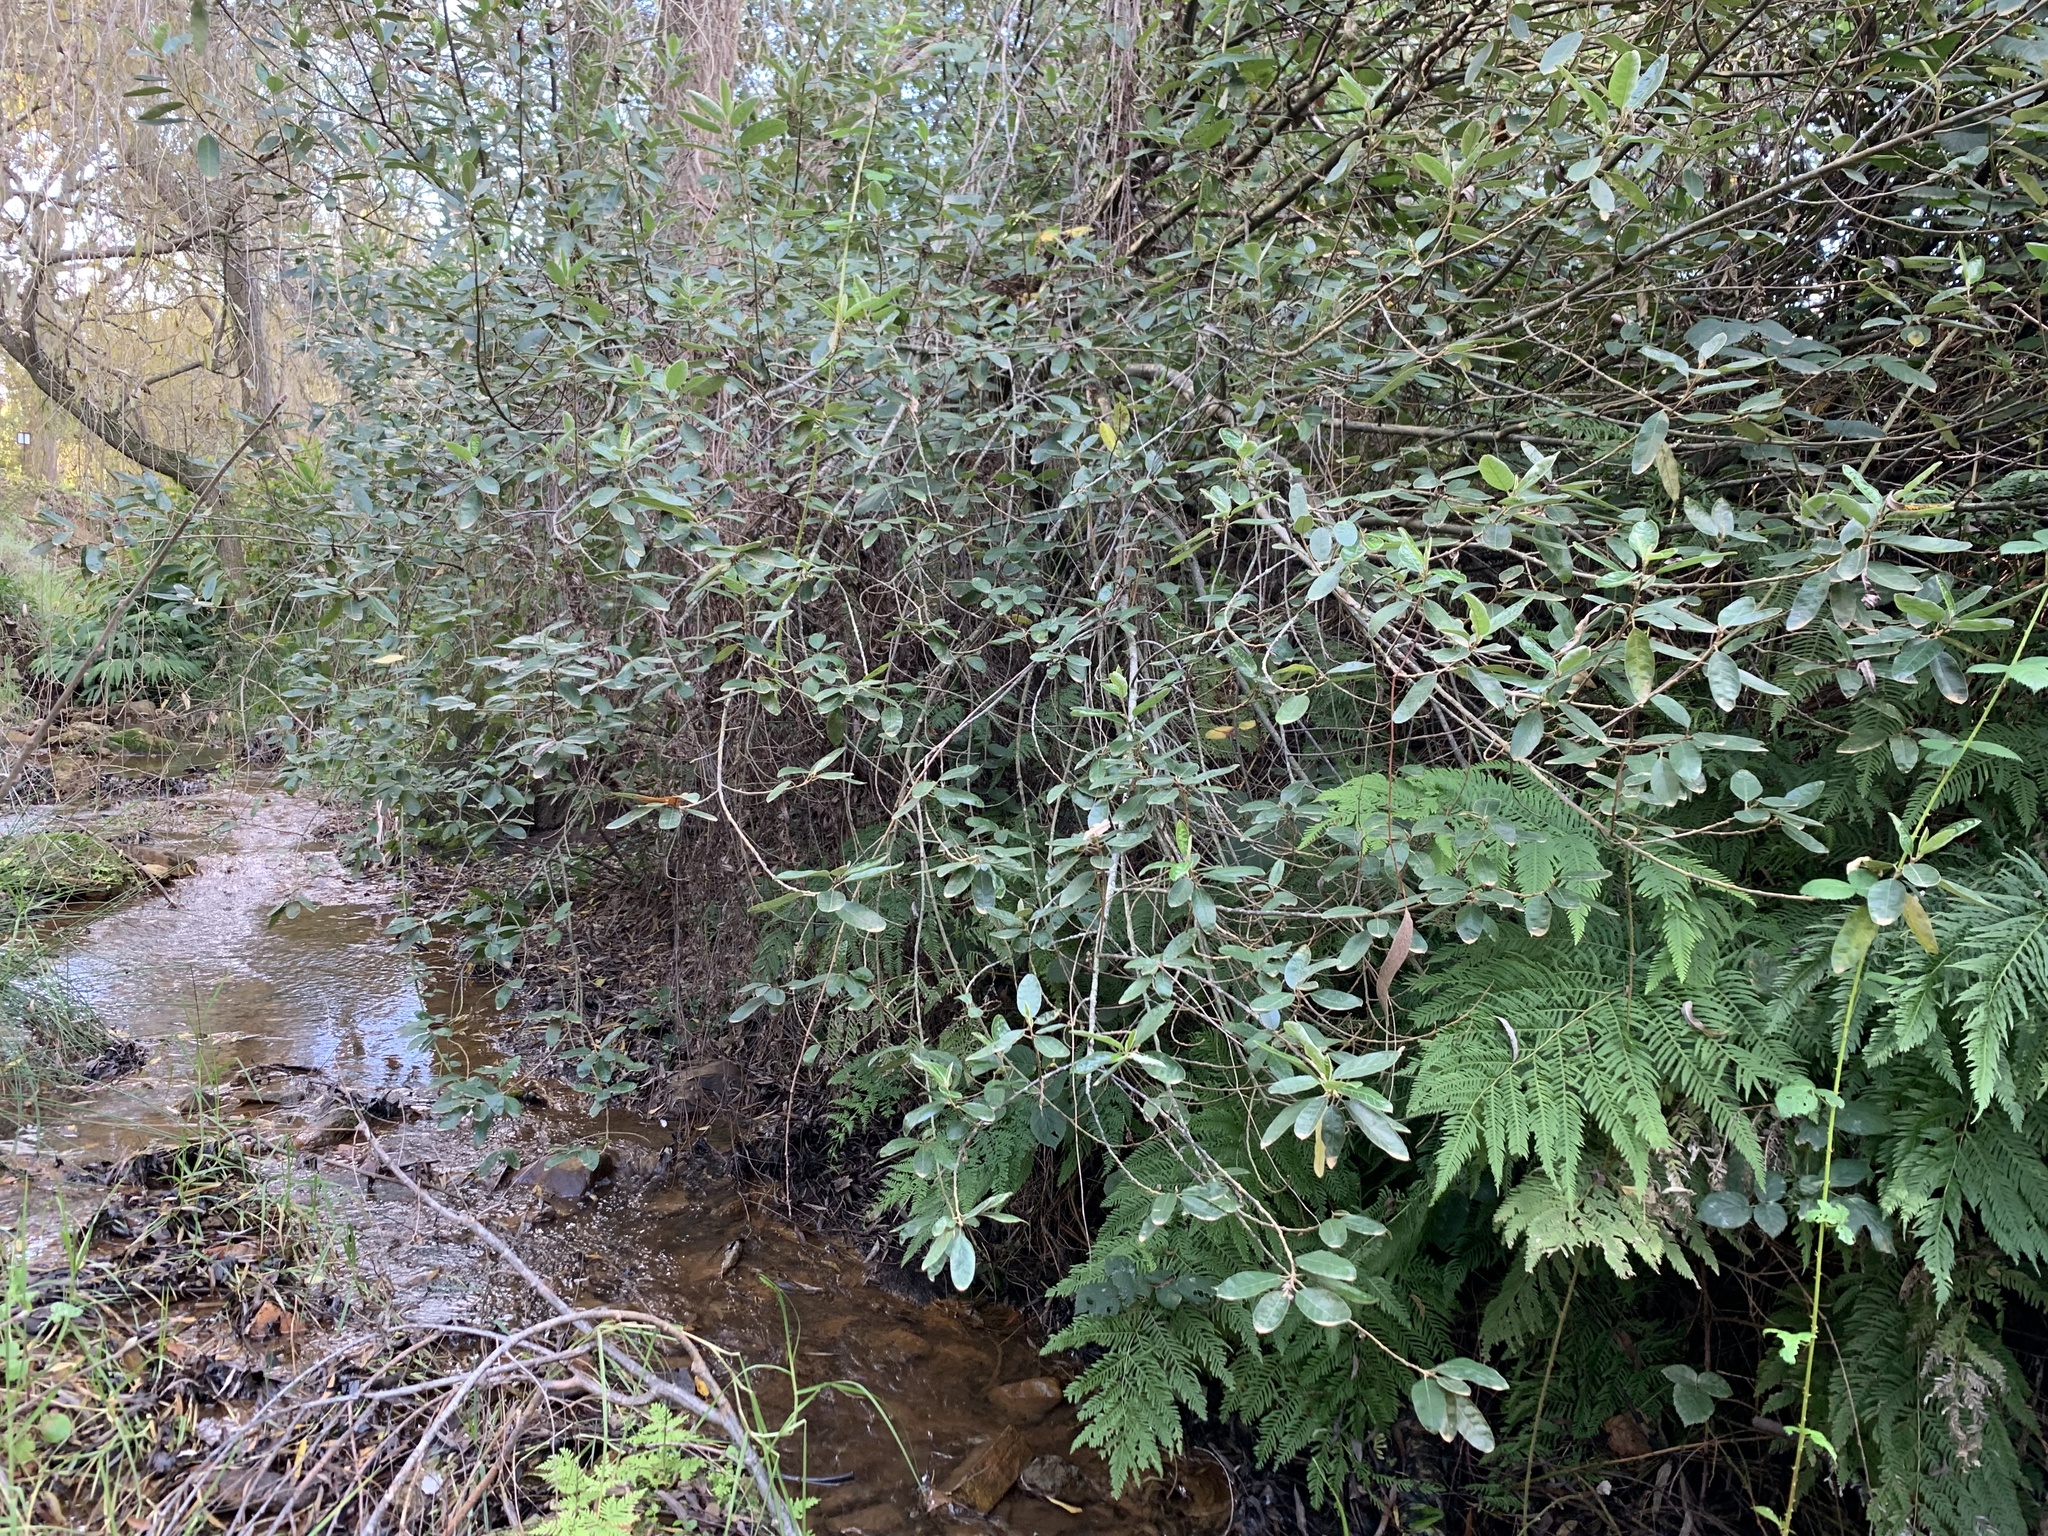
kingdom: Plantae
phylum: Tracheophyta
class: Magnoliopsida
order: Malpighiales
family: Achariaceae
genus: Kiggelaria
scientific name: Kiggelaria africana
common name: Wild peach
